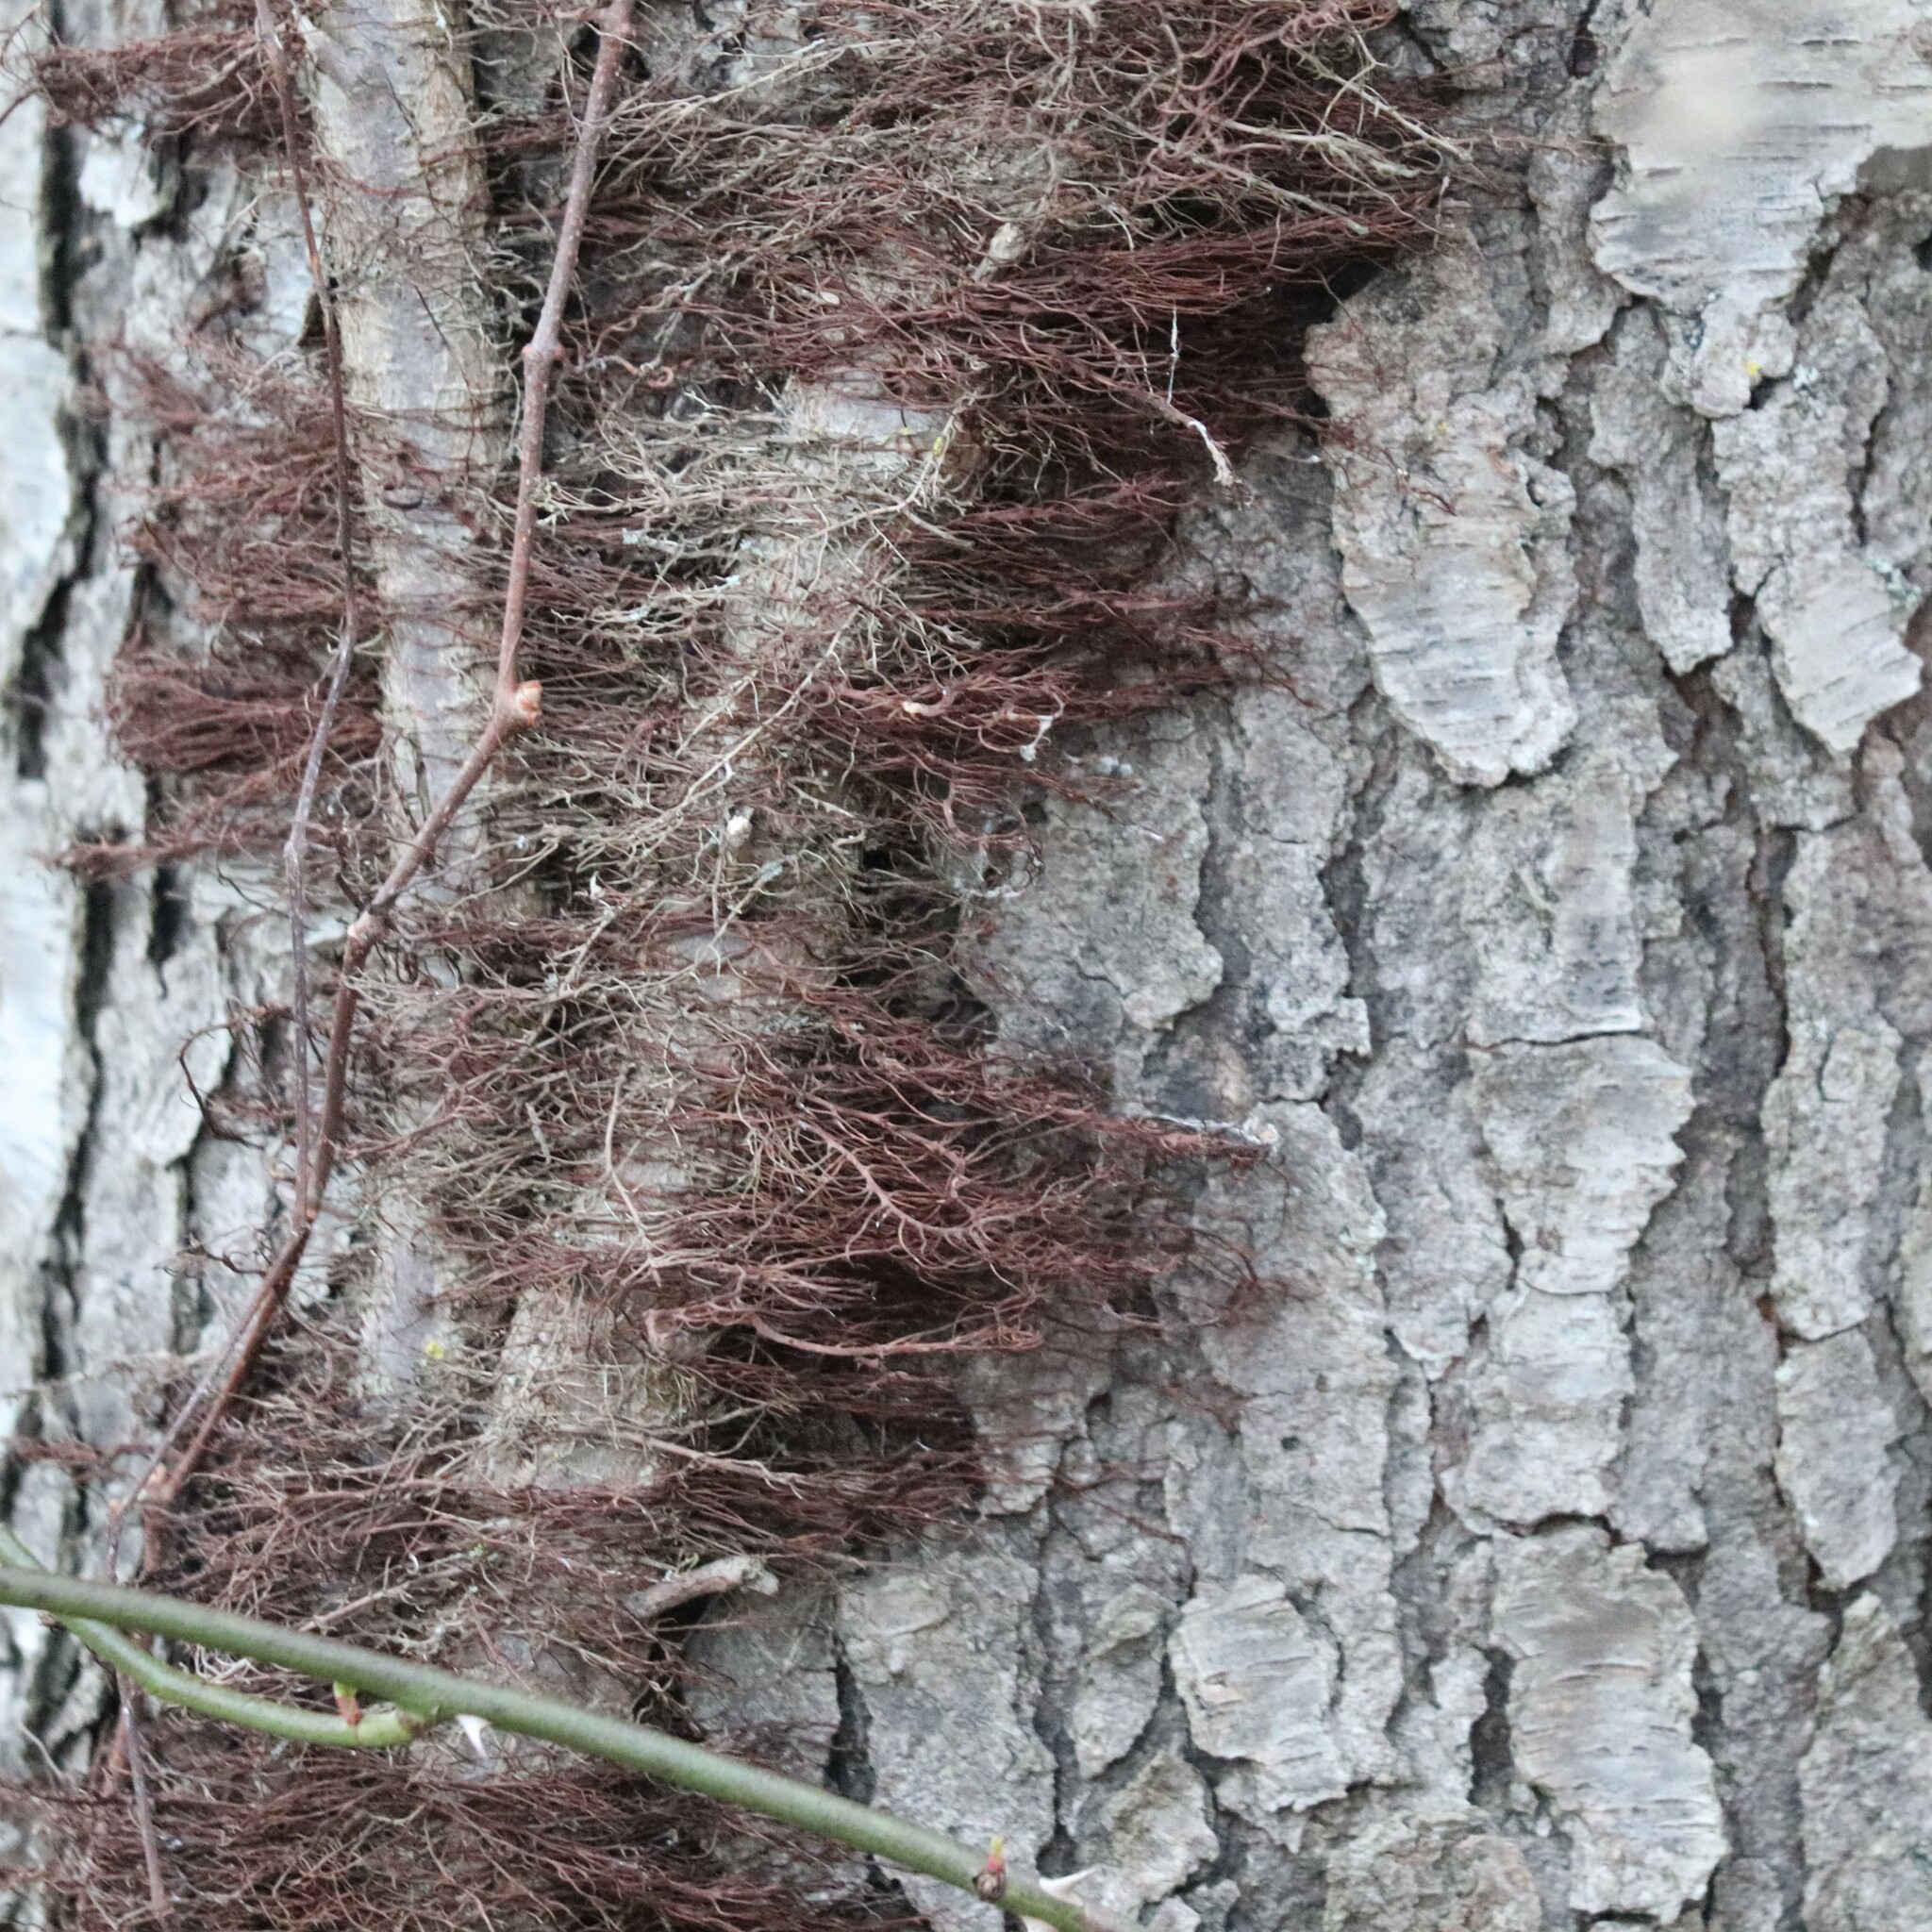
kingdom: Plantae
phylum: Tracheophyta
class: Magnoliopsida
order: Sapindales
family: Anacardiaceae
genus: Toxicodendron
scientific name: Toxicodendron radicans
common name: Poison ivy
